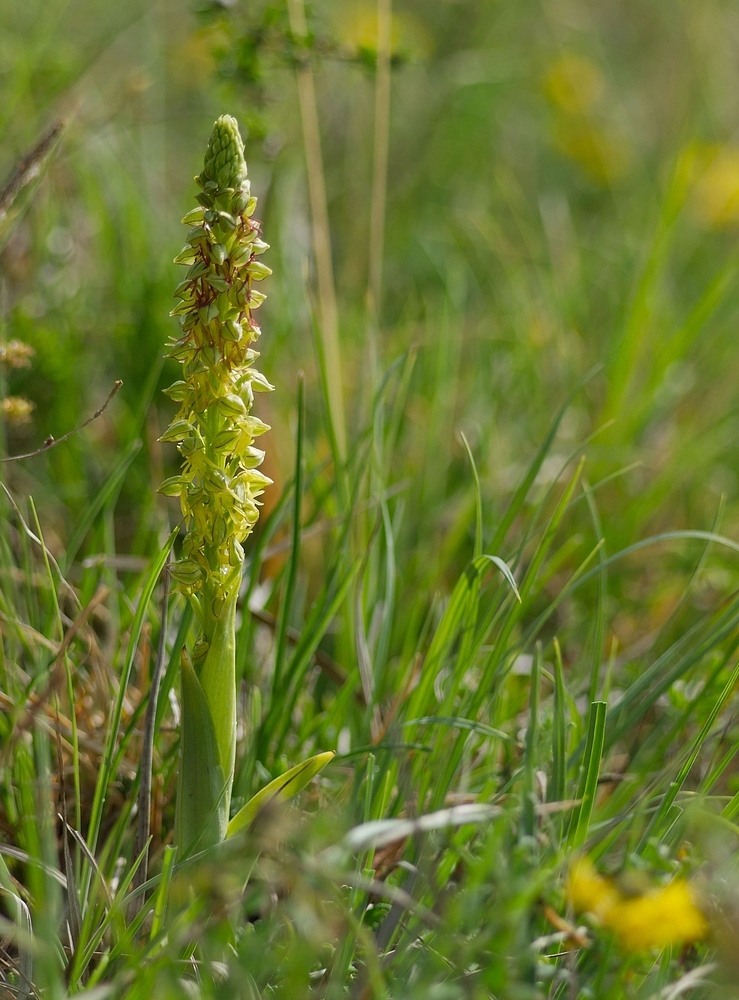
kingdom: Plantae
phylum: Tracheophyta
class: Liliopsida
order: Asparagales
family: Orchidaceae
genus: Orchis
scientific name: Orchis anthropophora
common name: Man orchid
